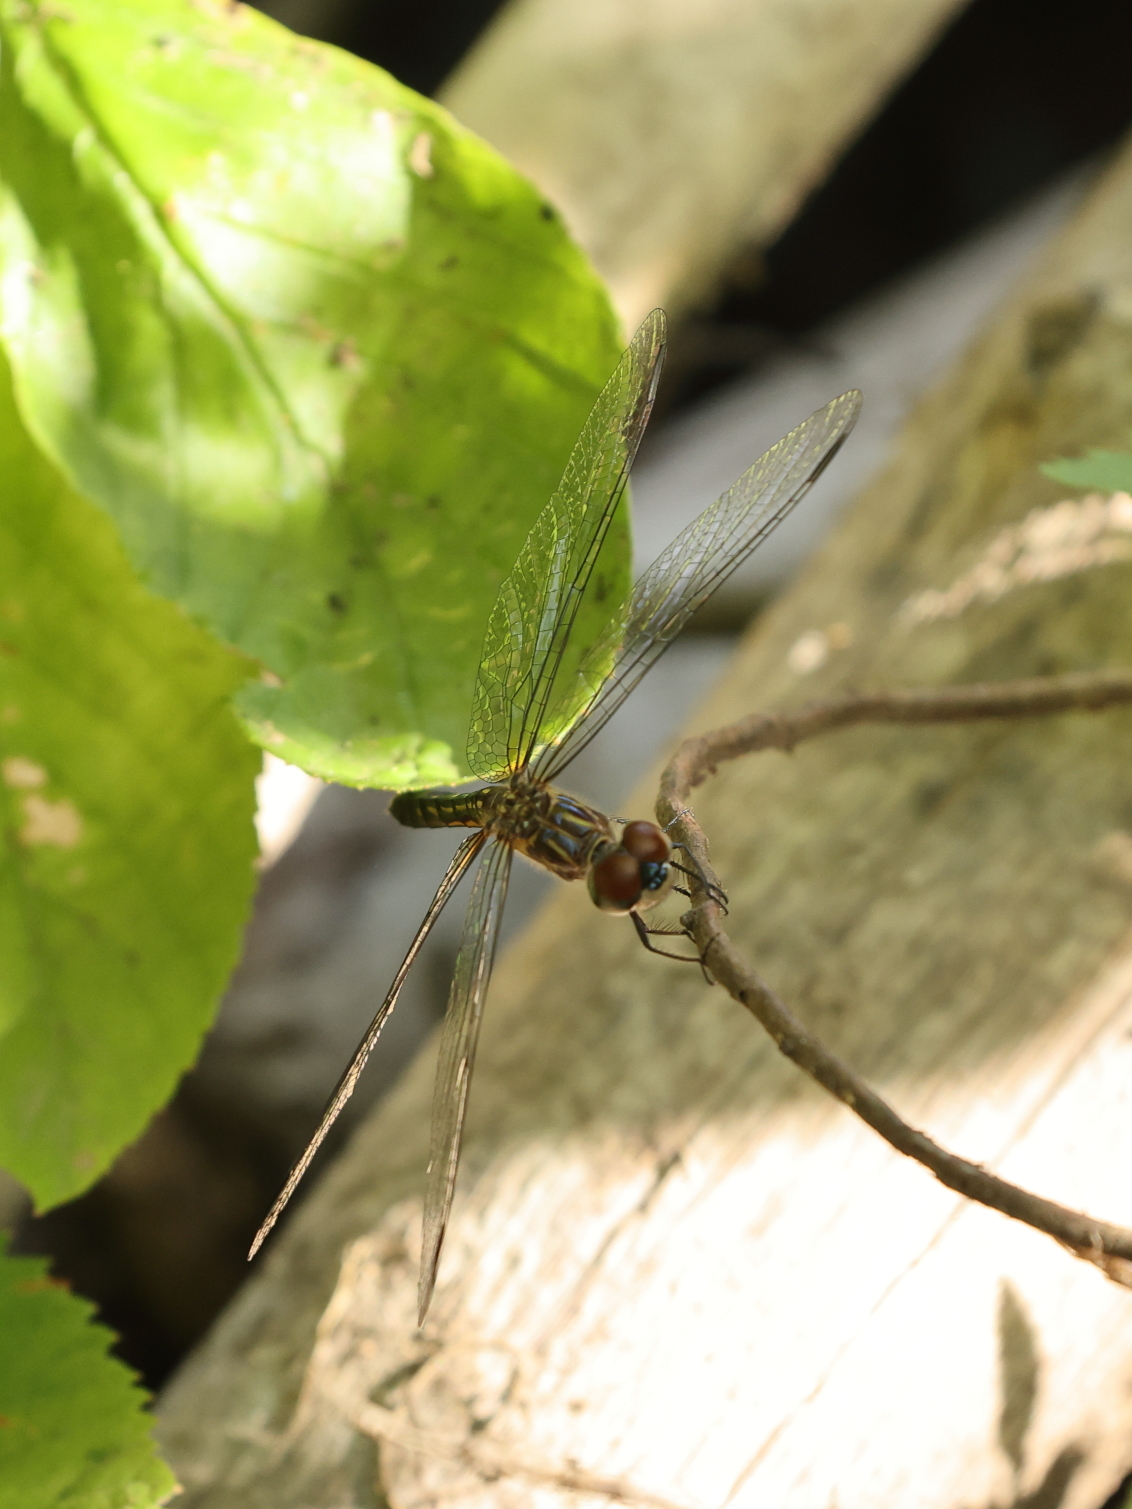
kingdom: Animalia
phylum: Arthropoda
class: Insecta
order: Odonata
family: Libellulidae
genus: Pachydiplax
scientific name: Pachydiplax longipennis
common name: Blue dasher
